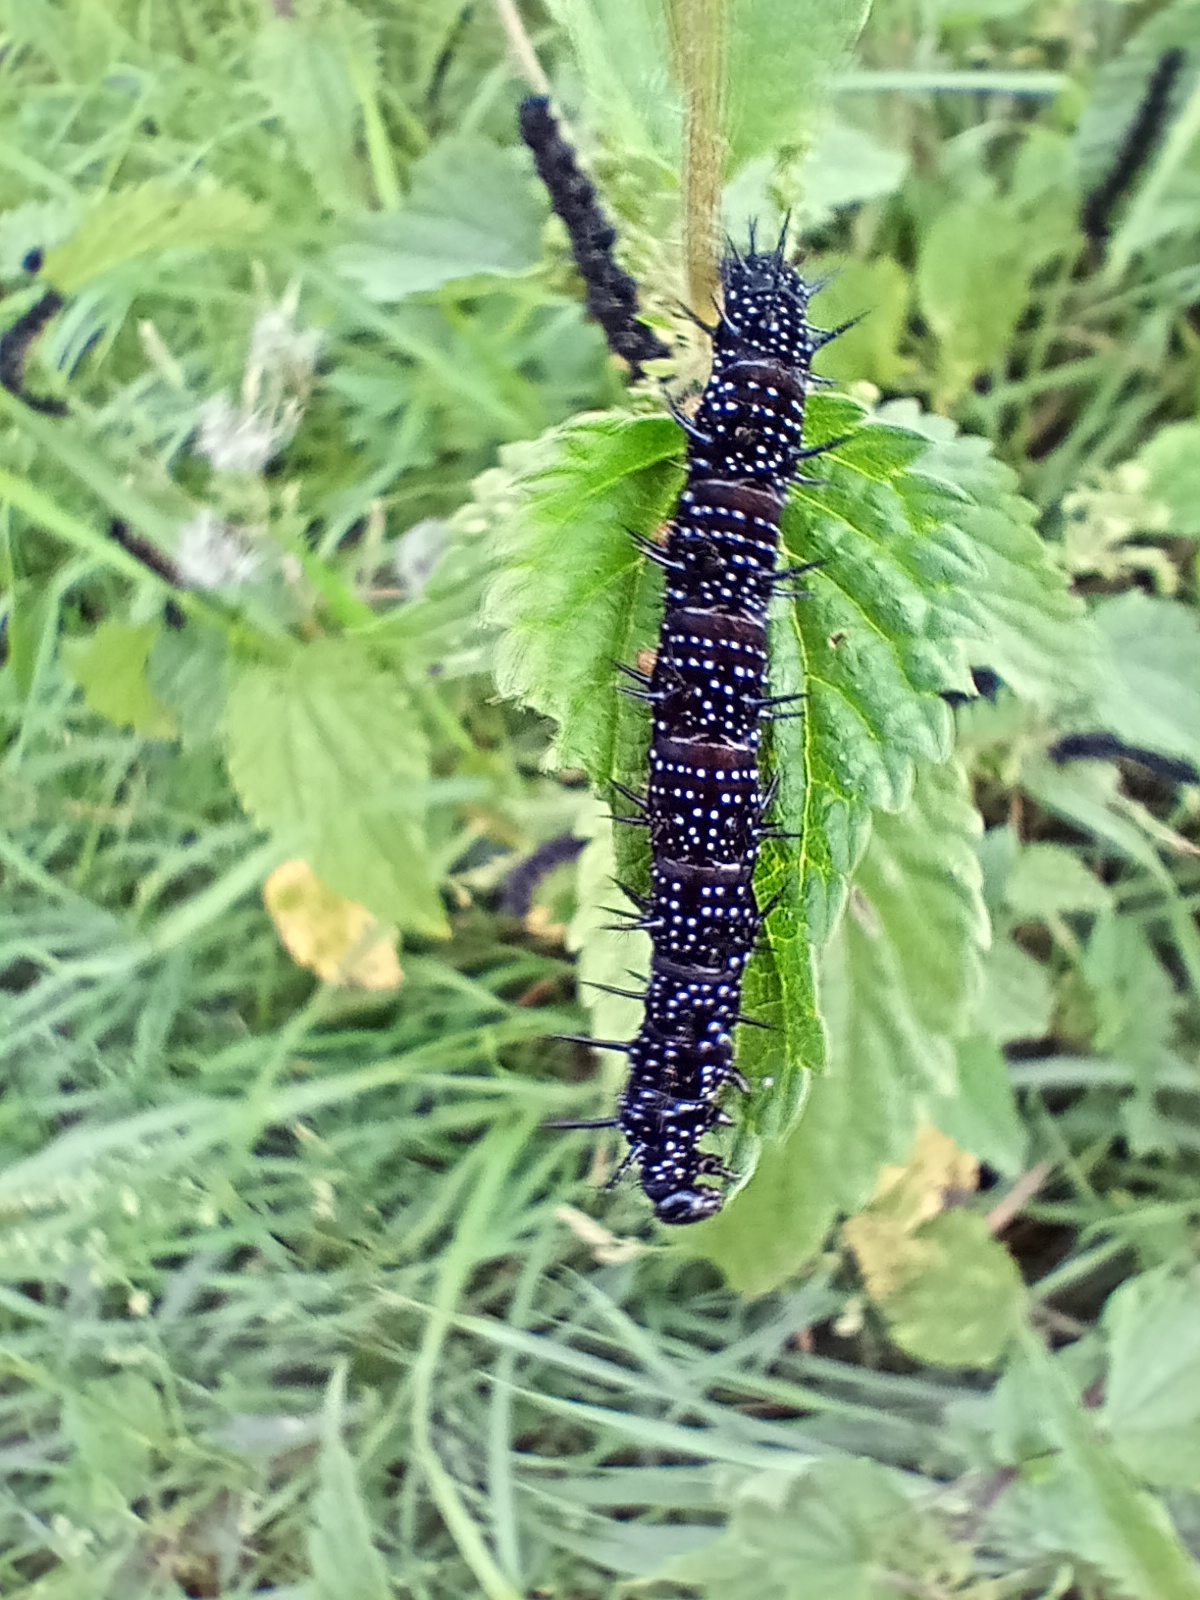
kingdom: Animalia
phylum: Arthropoda
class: Insecta
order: Lepidoptera
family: Nymphalidae
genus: Aglais
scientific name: Aglais io
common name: Peacock
